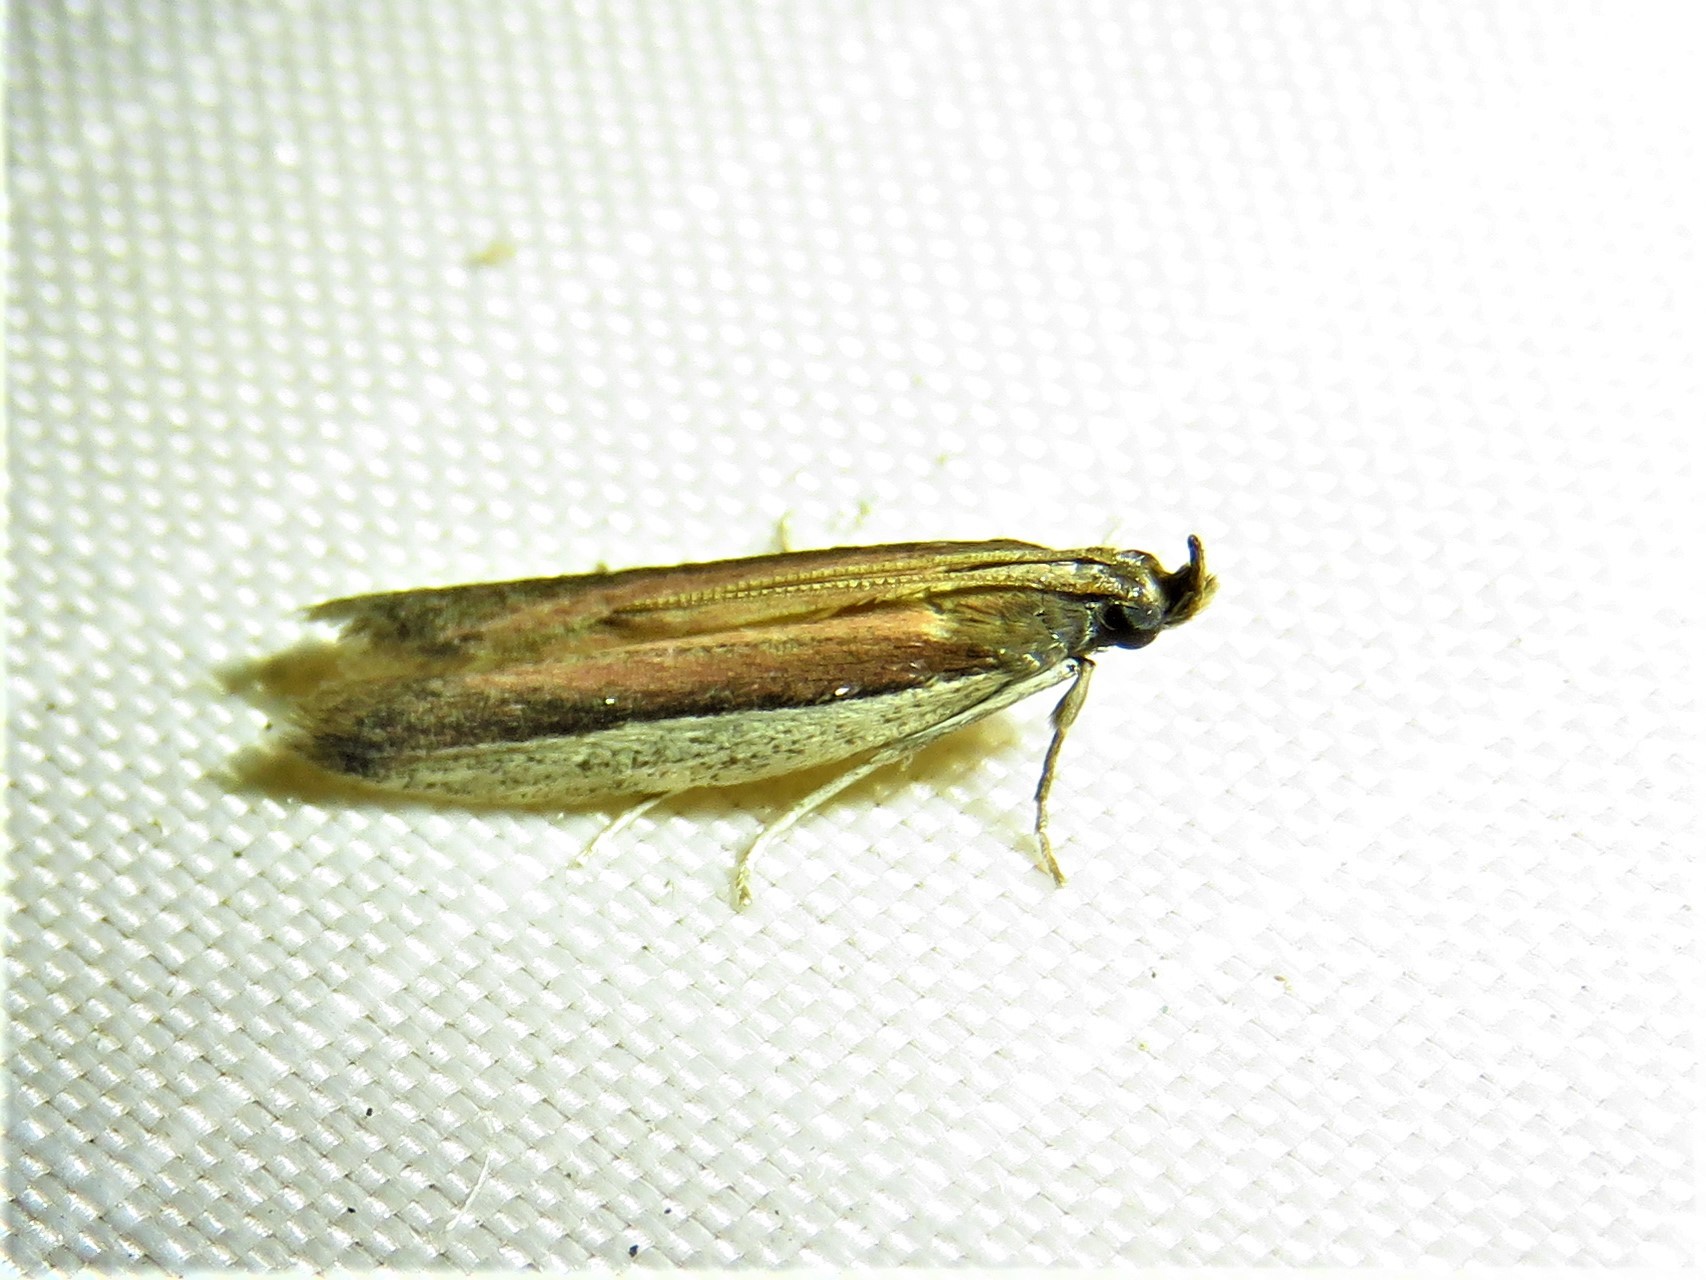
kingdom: Animalia
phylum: Arthropoda
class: Insecta
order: Lepidoptera
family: Pyralidae
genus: Tampa
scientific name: Tampa dimediatella
